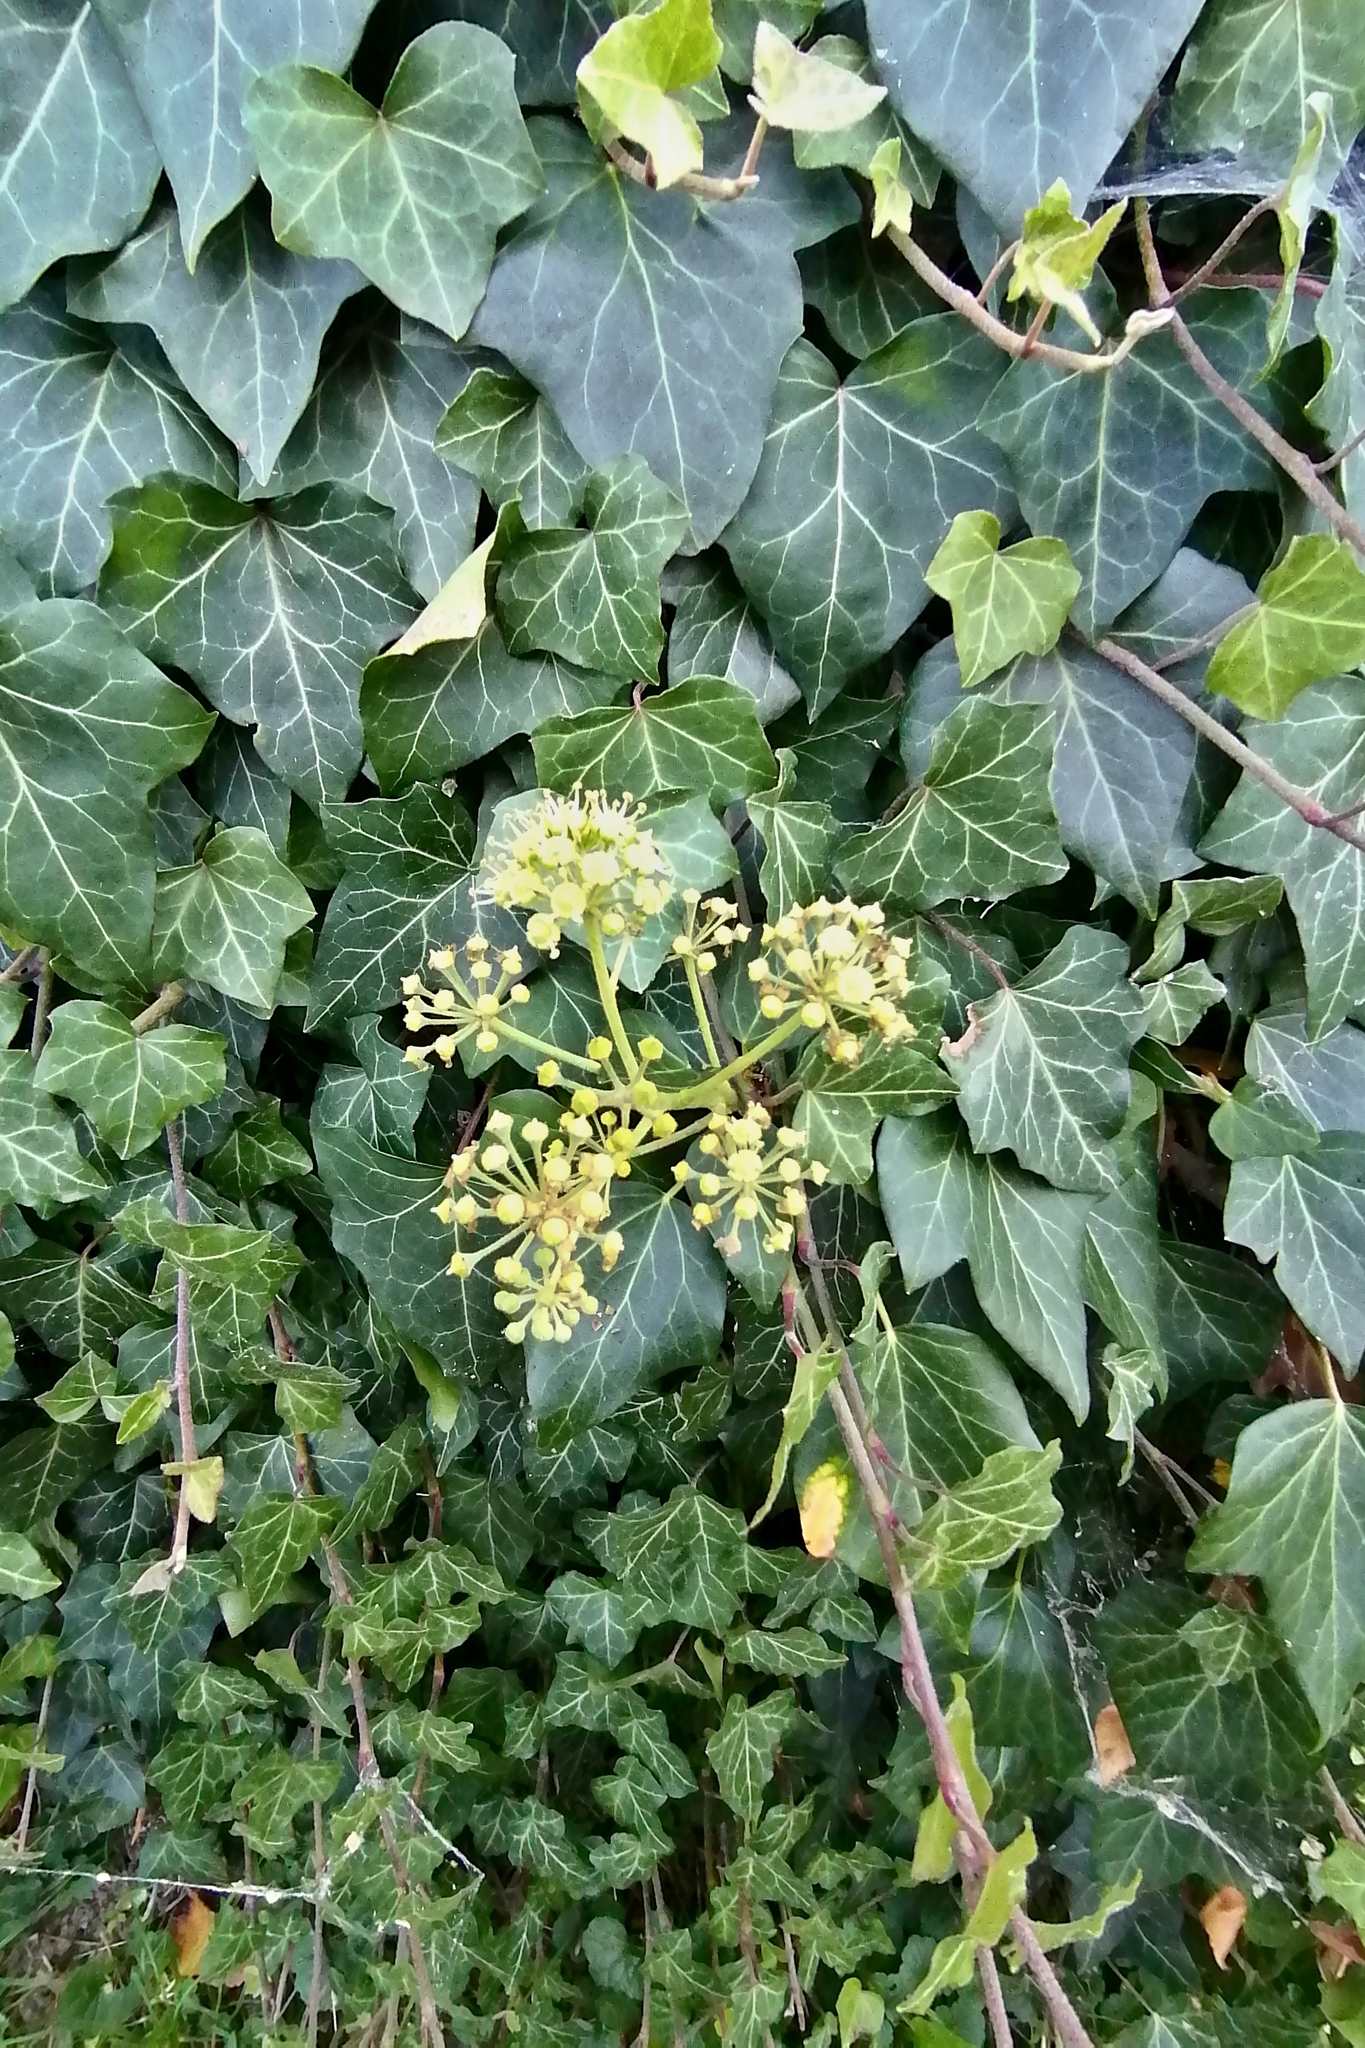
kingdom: Plantae
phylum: Tracheophyta
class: Magnoliopsida
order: Apiales
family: Araliaceae
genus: Hedera
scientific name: Hedera helix
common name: Ivy
